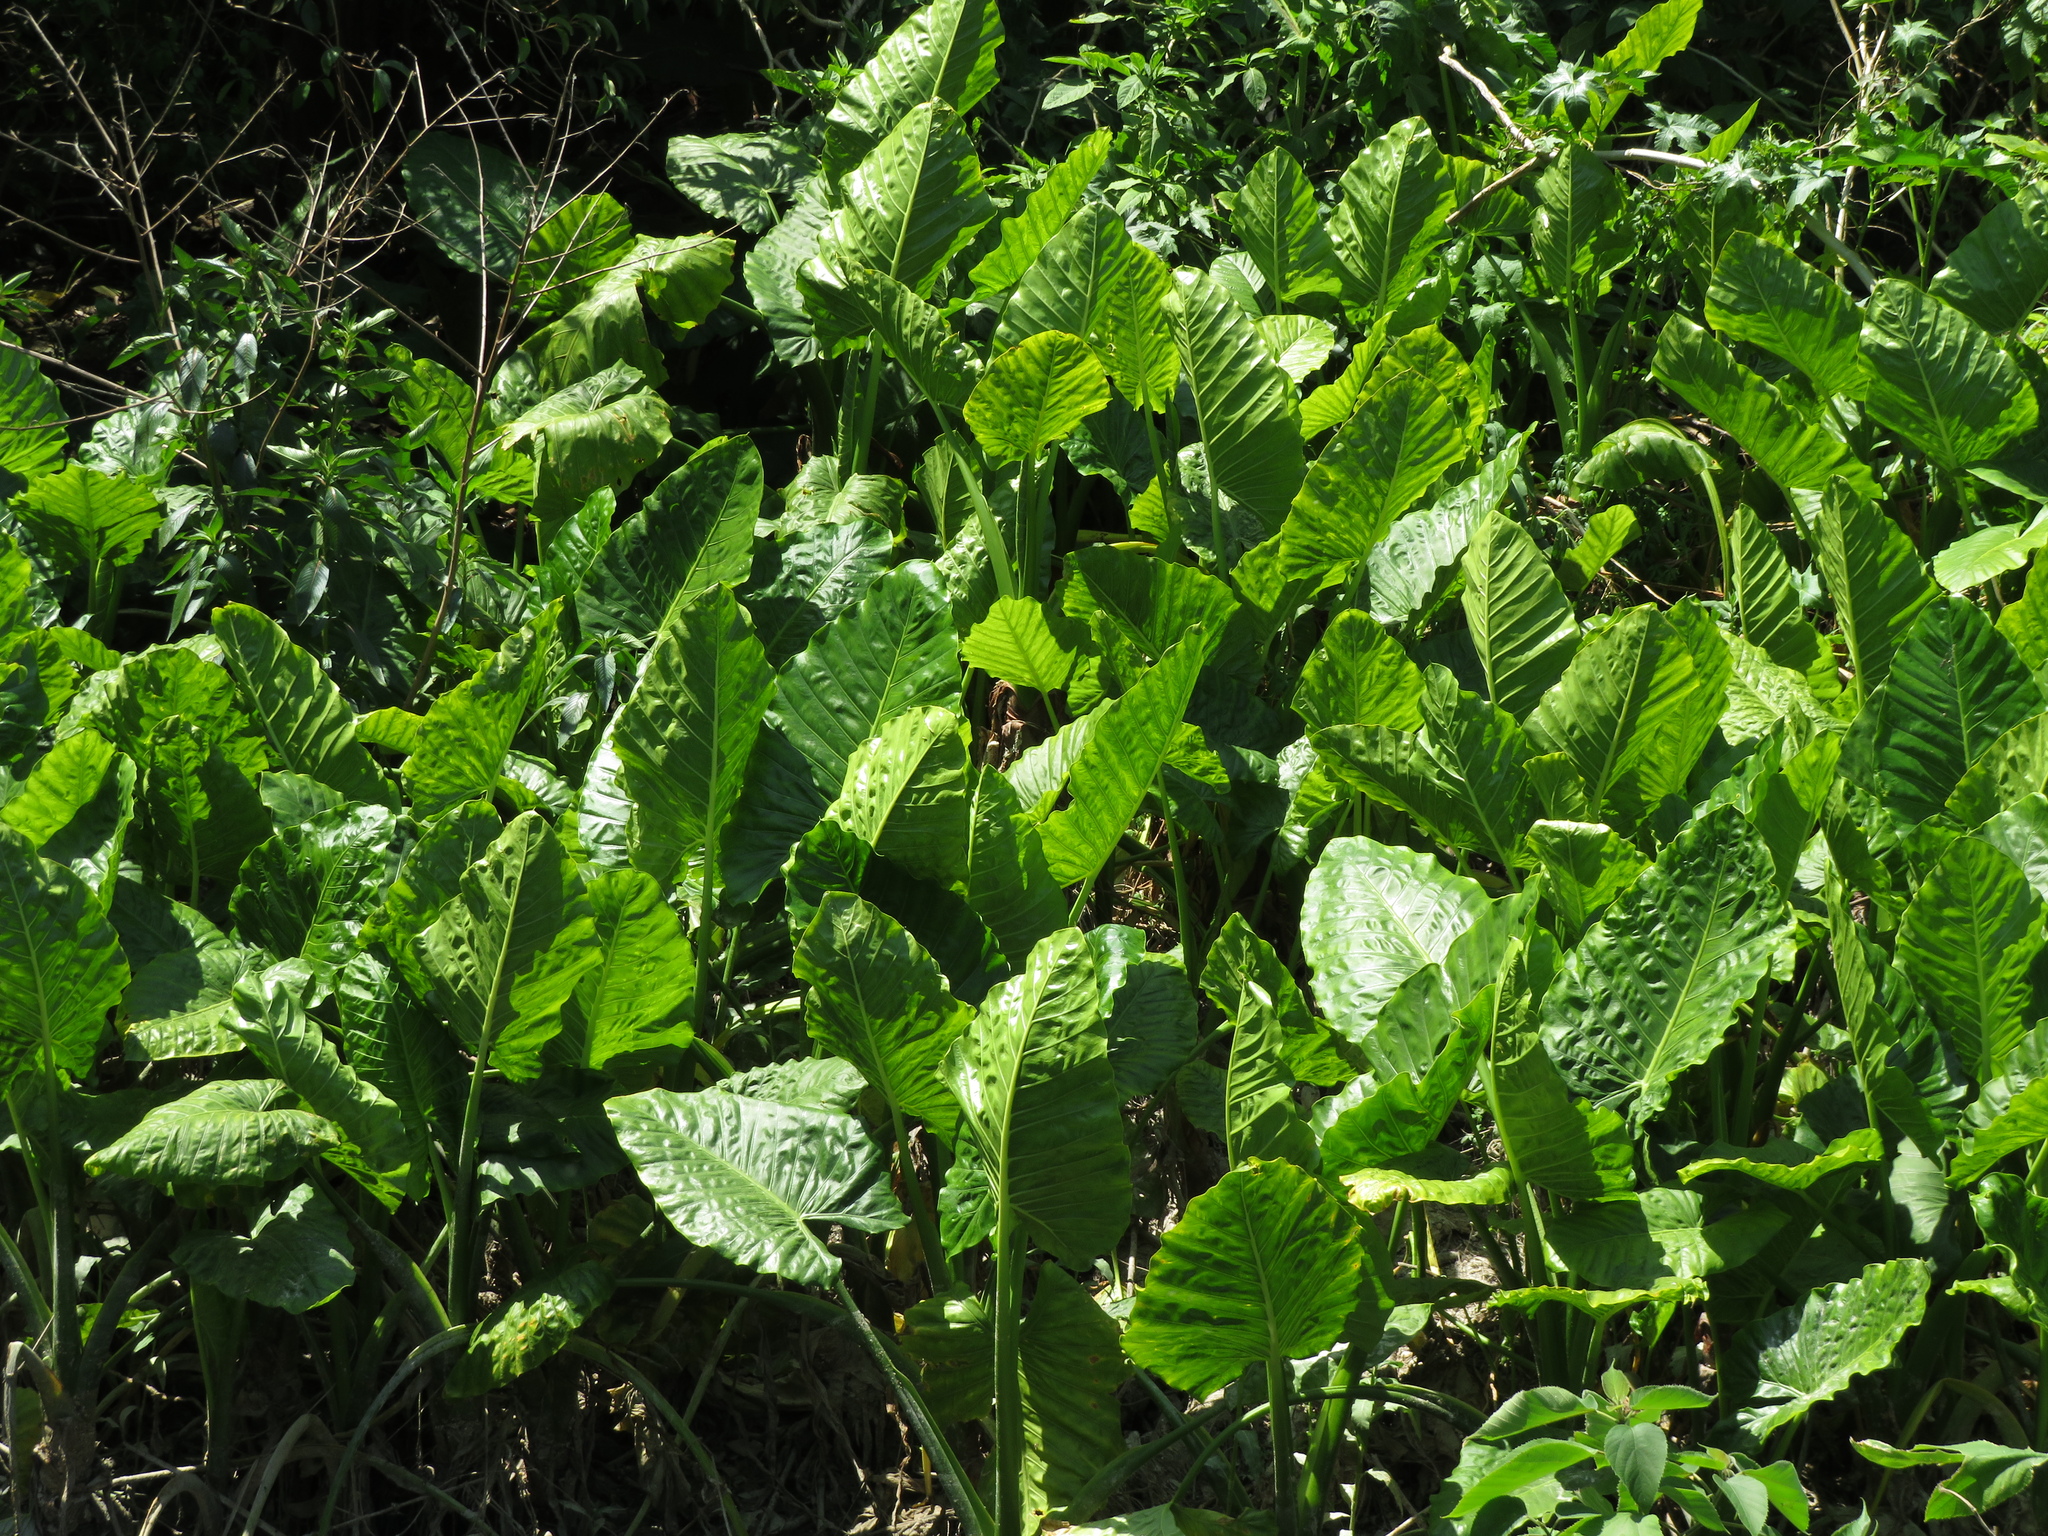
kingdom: Plantae
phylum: Tracheophyta
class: Liliopsida
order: Alismatales
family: Araceae
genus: Alocasia
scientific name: Alocasia macrorrhizos
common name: Giant taro
